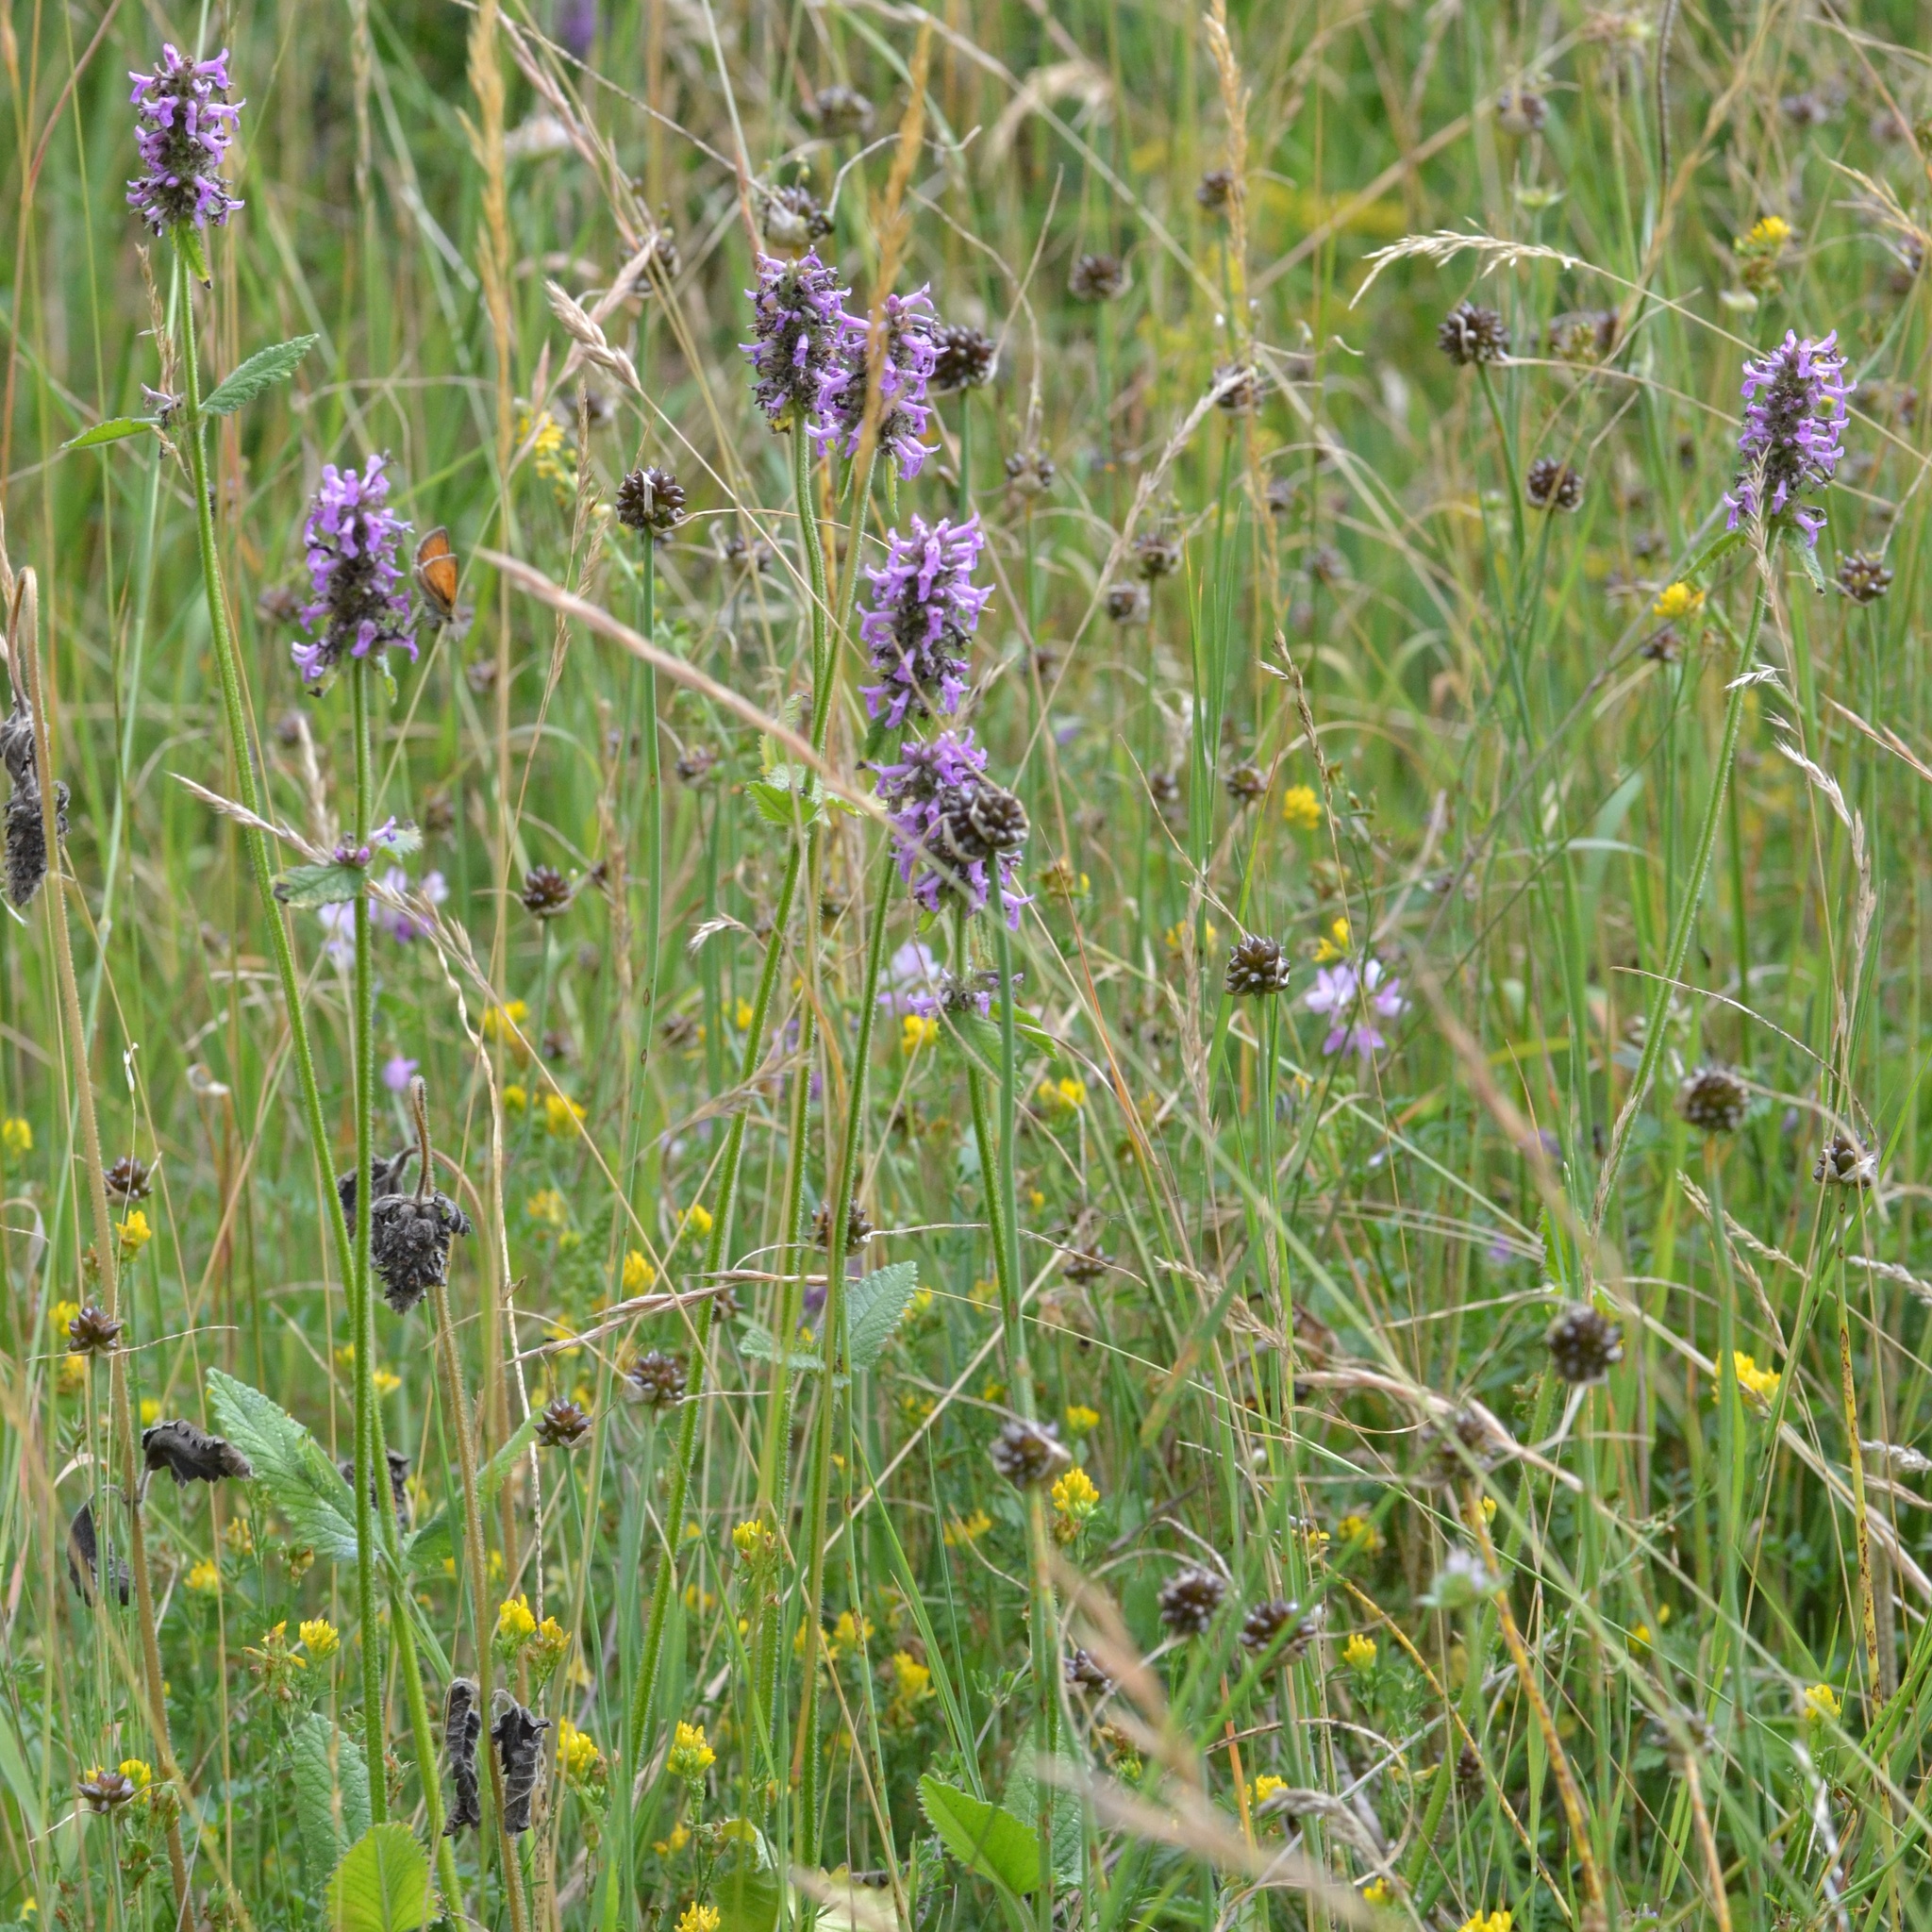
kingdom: Plantae
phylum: Tracheophyta
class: Magnoliopsida
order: Lamiales
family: Lamiaceae
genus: Betonica
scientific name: Betonica officinalis
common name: Bishop's-wort
